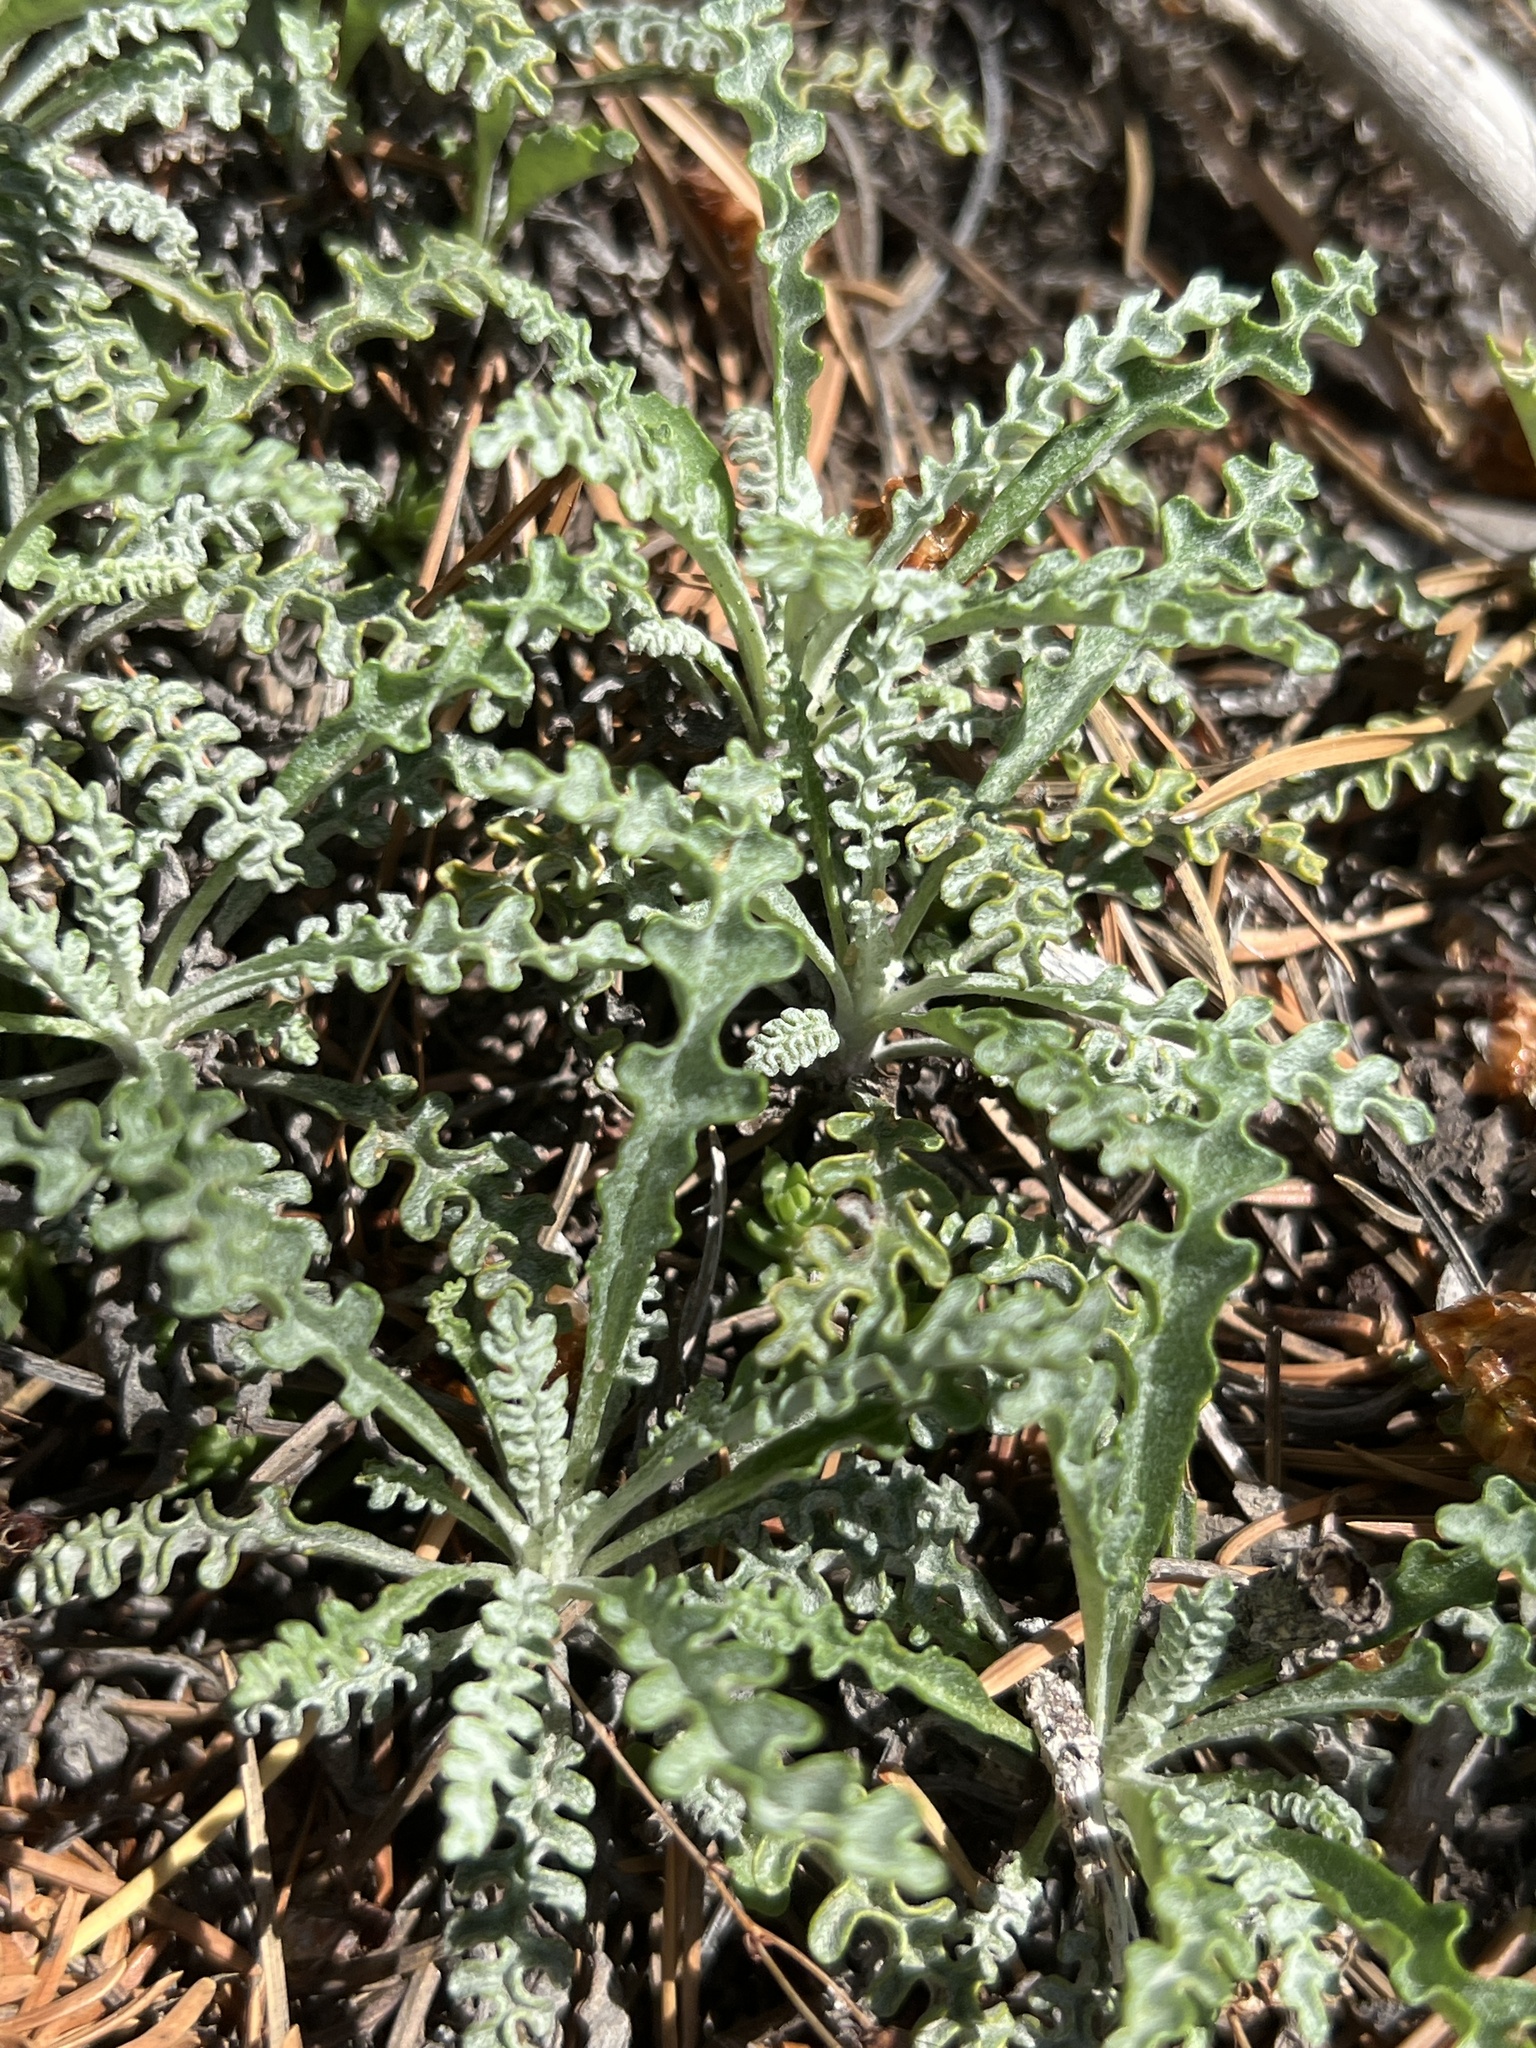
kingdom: Plantae
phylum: Tracheophyta
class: Magnoliopsida
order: Asterales
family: Asteraceae
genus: Packera
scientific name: Packera fendleri
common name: Notch-leaf butterweed
